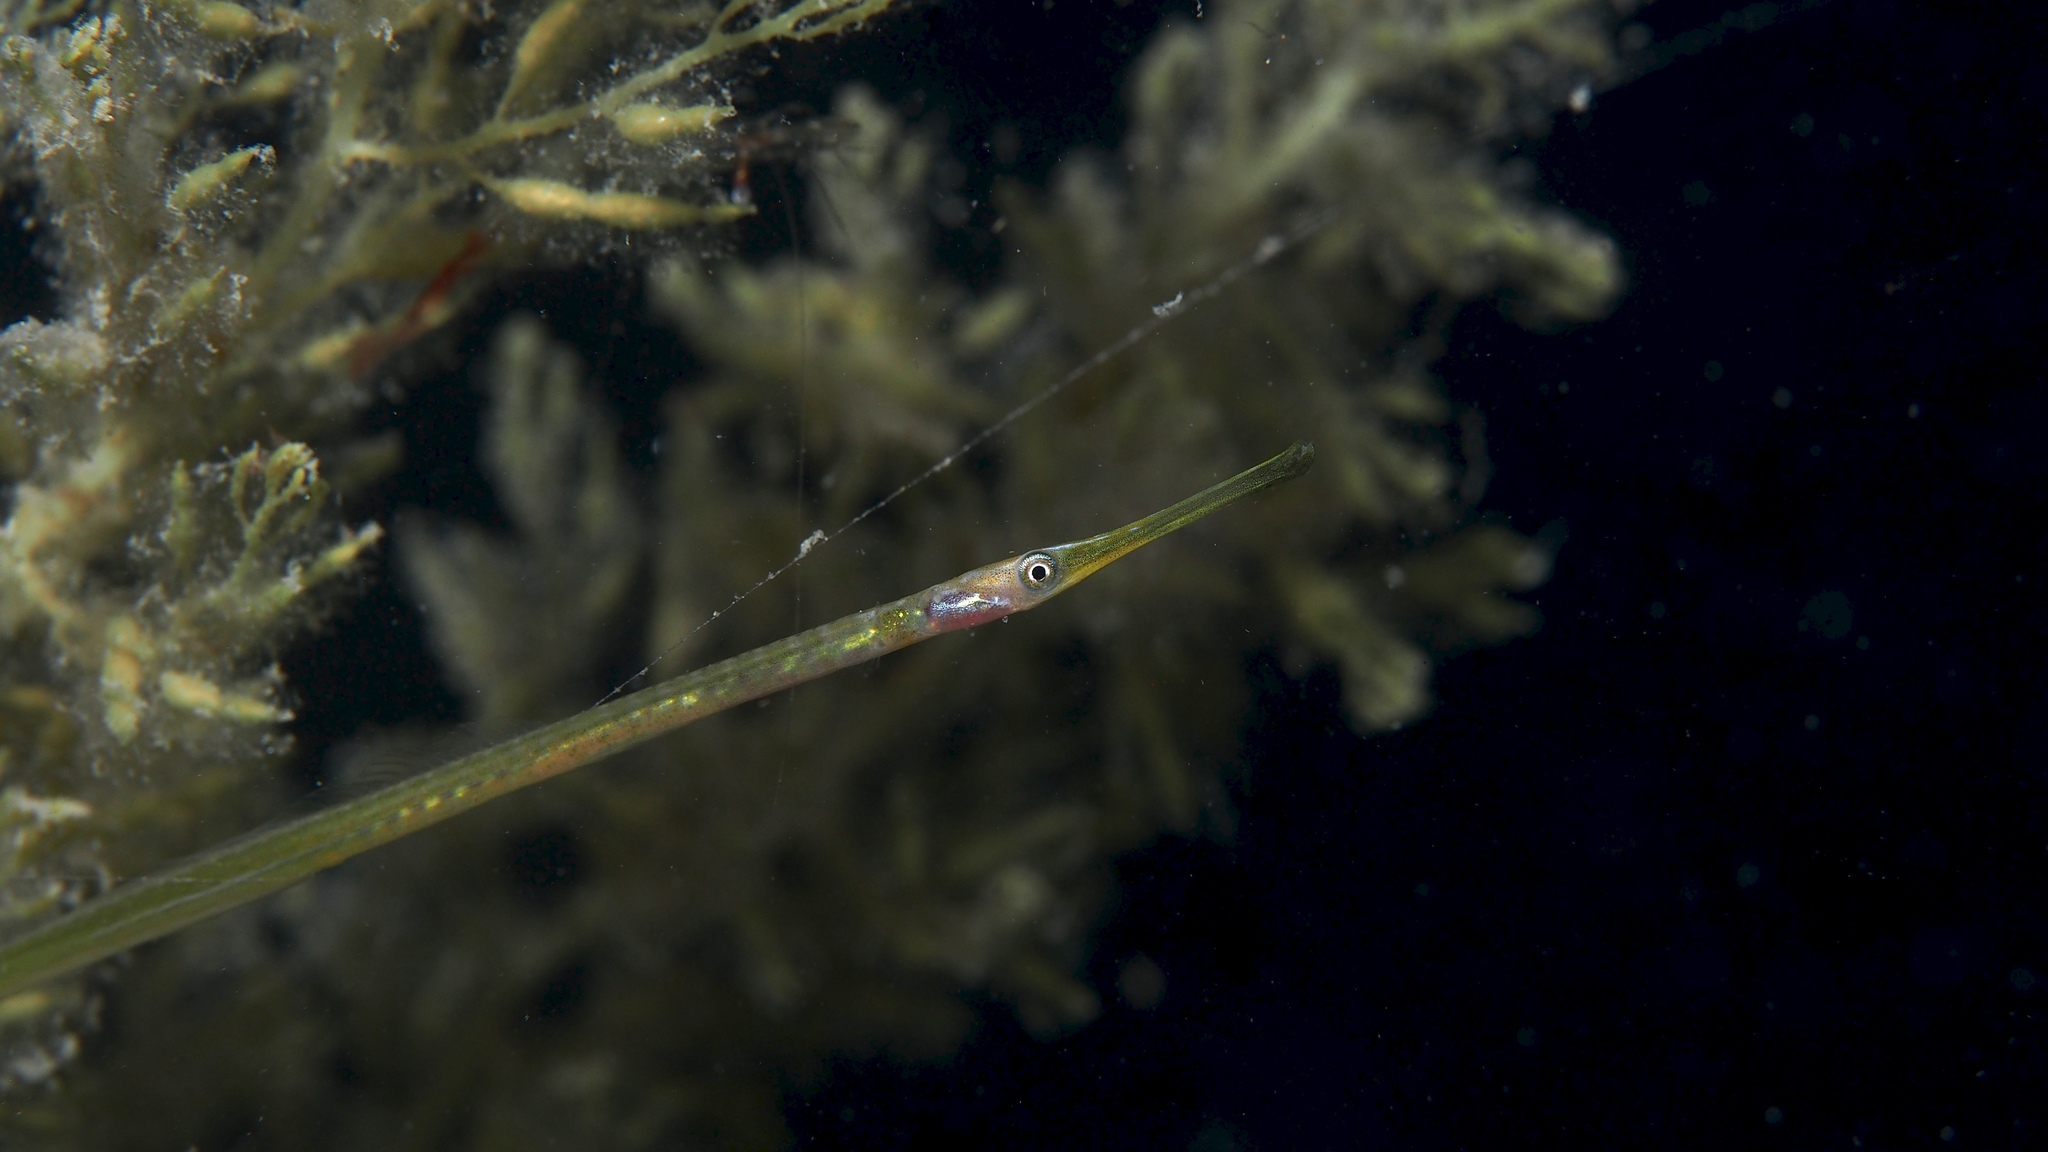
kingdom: Animalia
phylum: Chordata
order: Syngnathiformes
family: Syngnathidae
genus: Stigmatopora
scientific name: Stigmatopora argus
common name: Gulf pipefish
